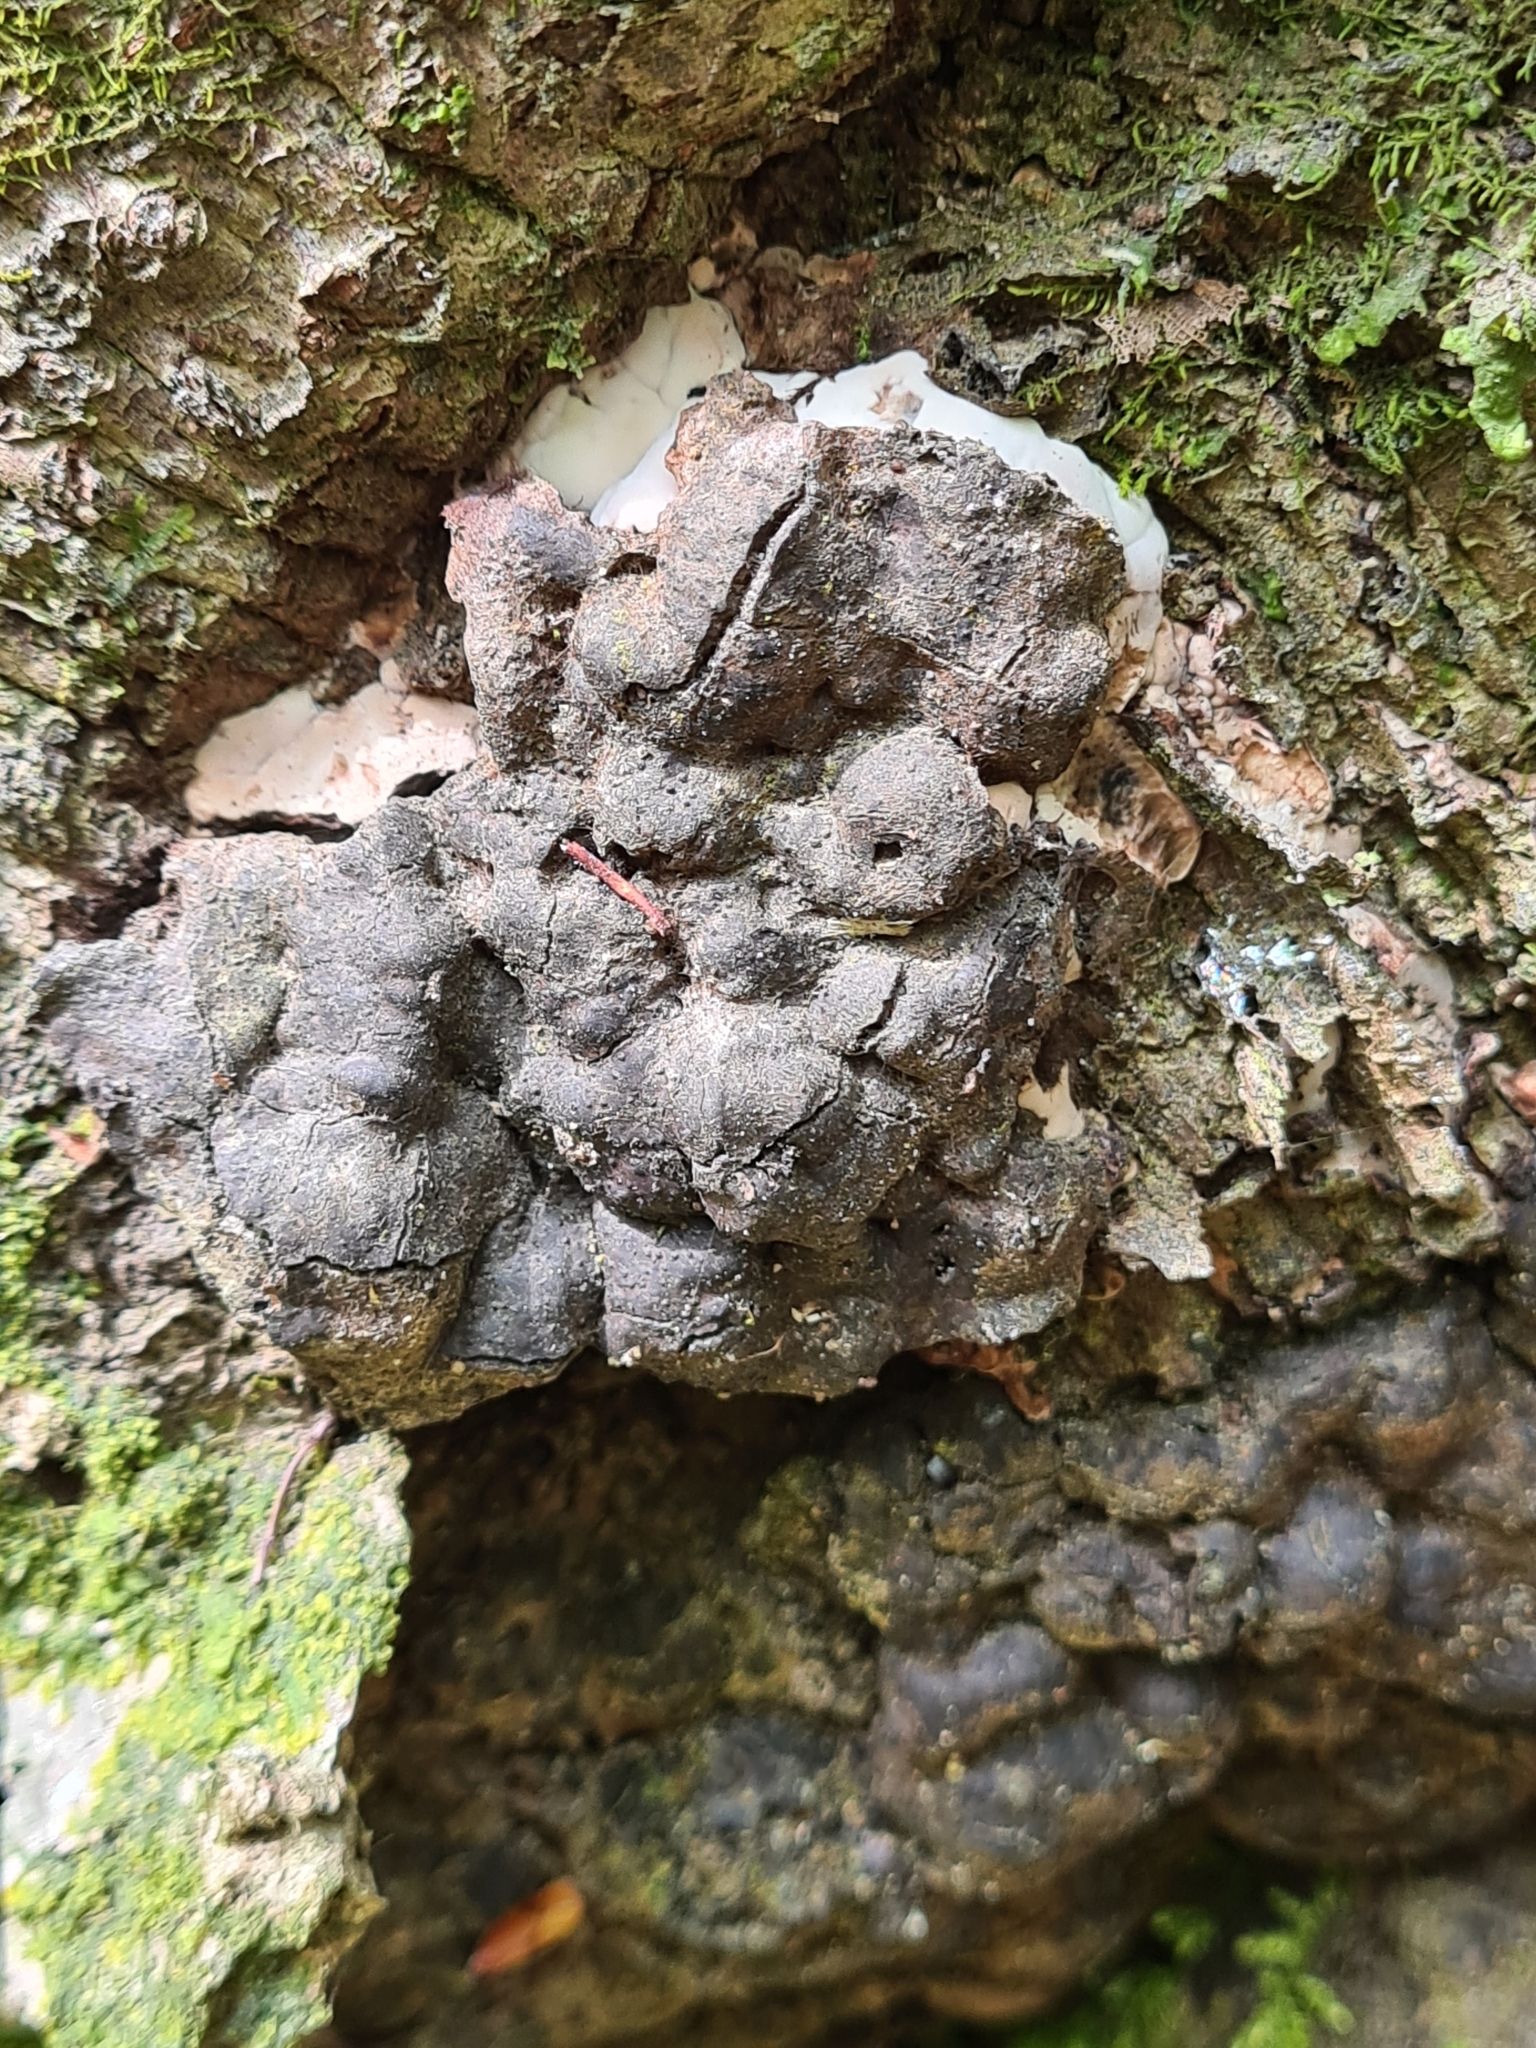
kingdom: Fungi
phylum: Ascomycota
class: Sordariomycetes
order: Xylariales
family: Xylariaceae
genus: Kretzschmaria
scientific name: Kretzschmaria deusta
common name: Brittle cinder
